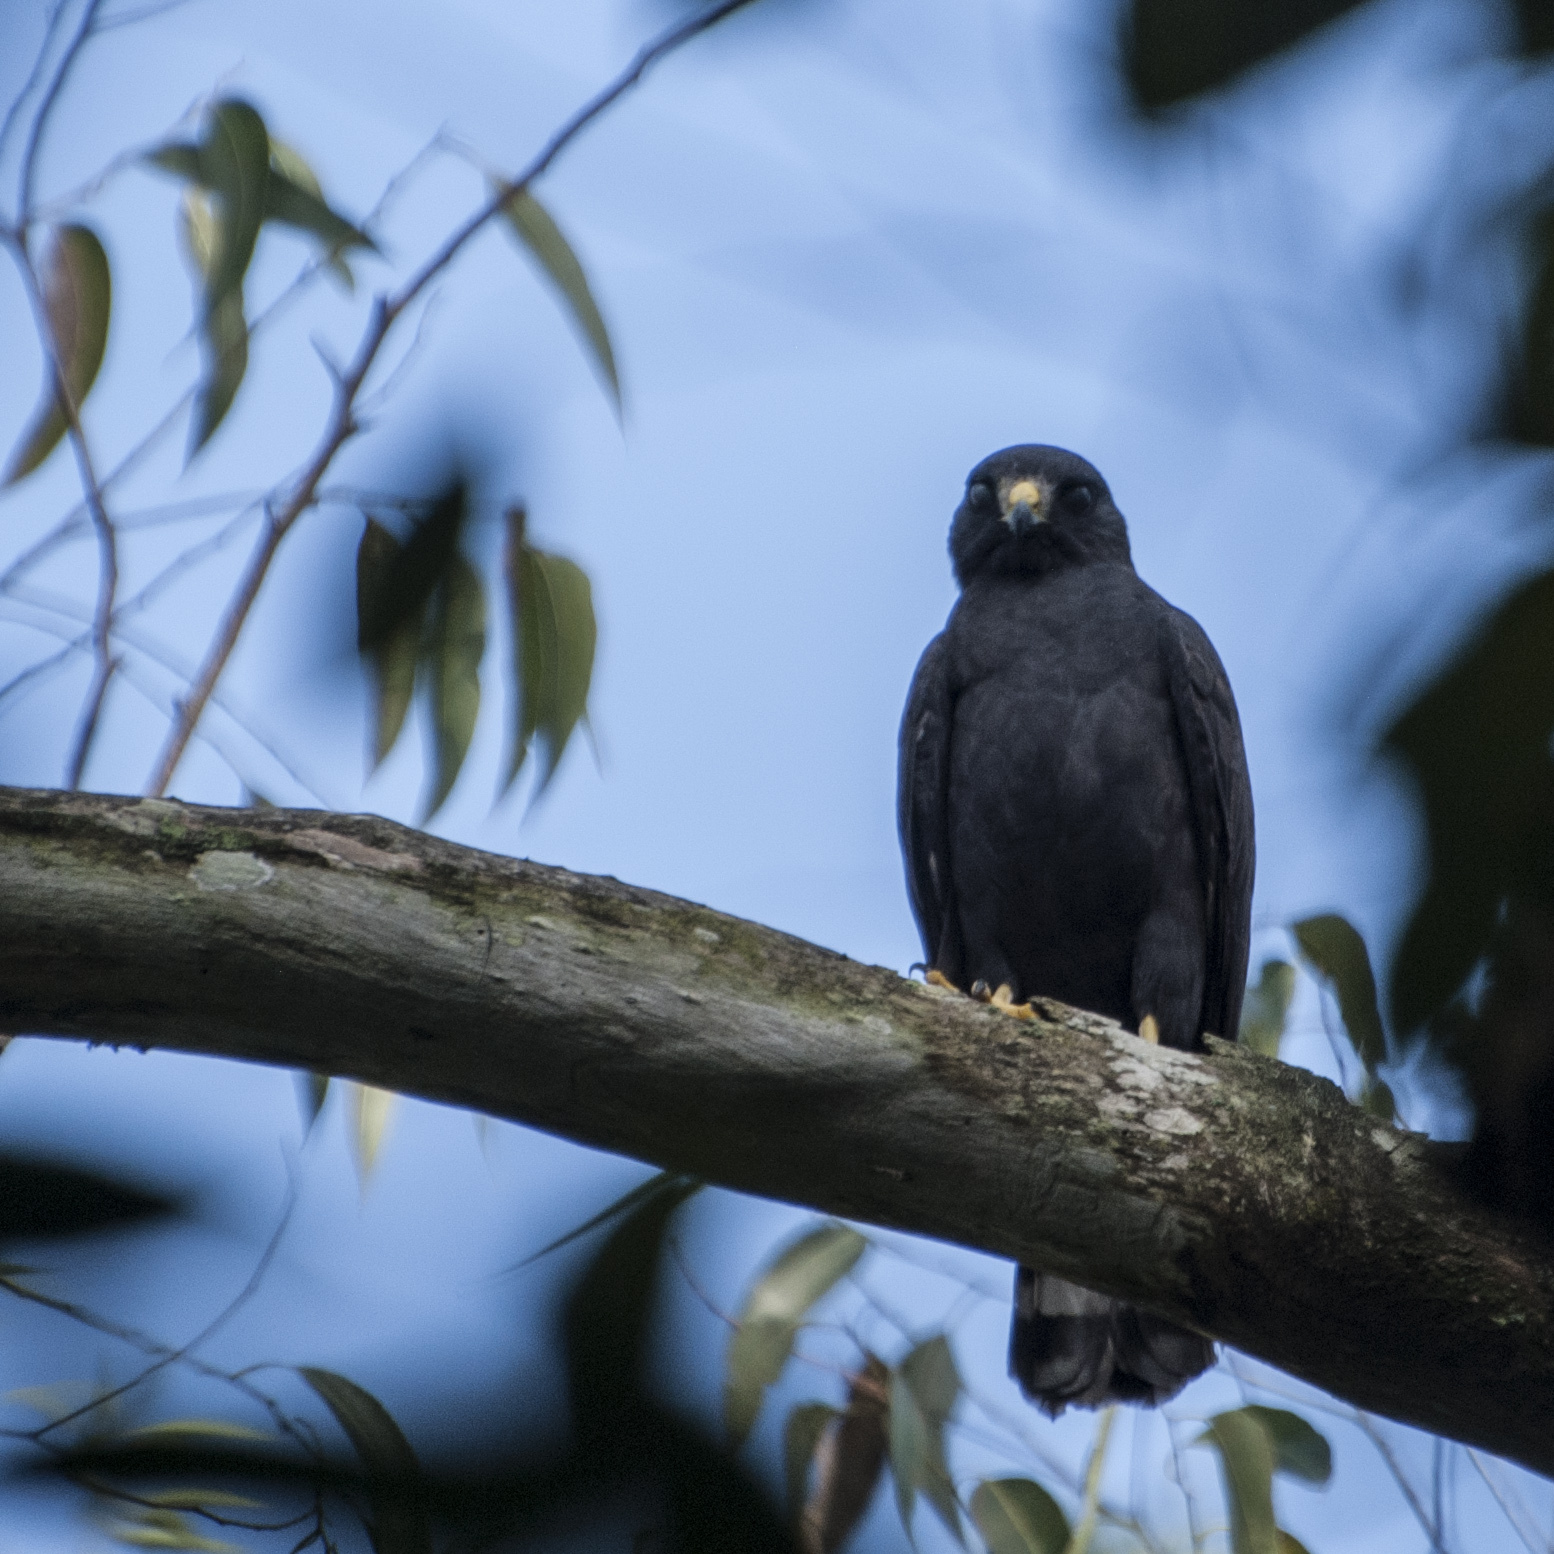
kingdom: Animalia
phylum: Chordata
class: Aves
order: Accipitriformes
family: Accipitridae
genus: Buteo
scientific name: Buteo brachyurus
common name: Short-tailed hawk
